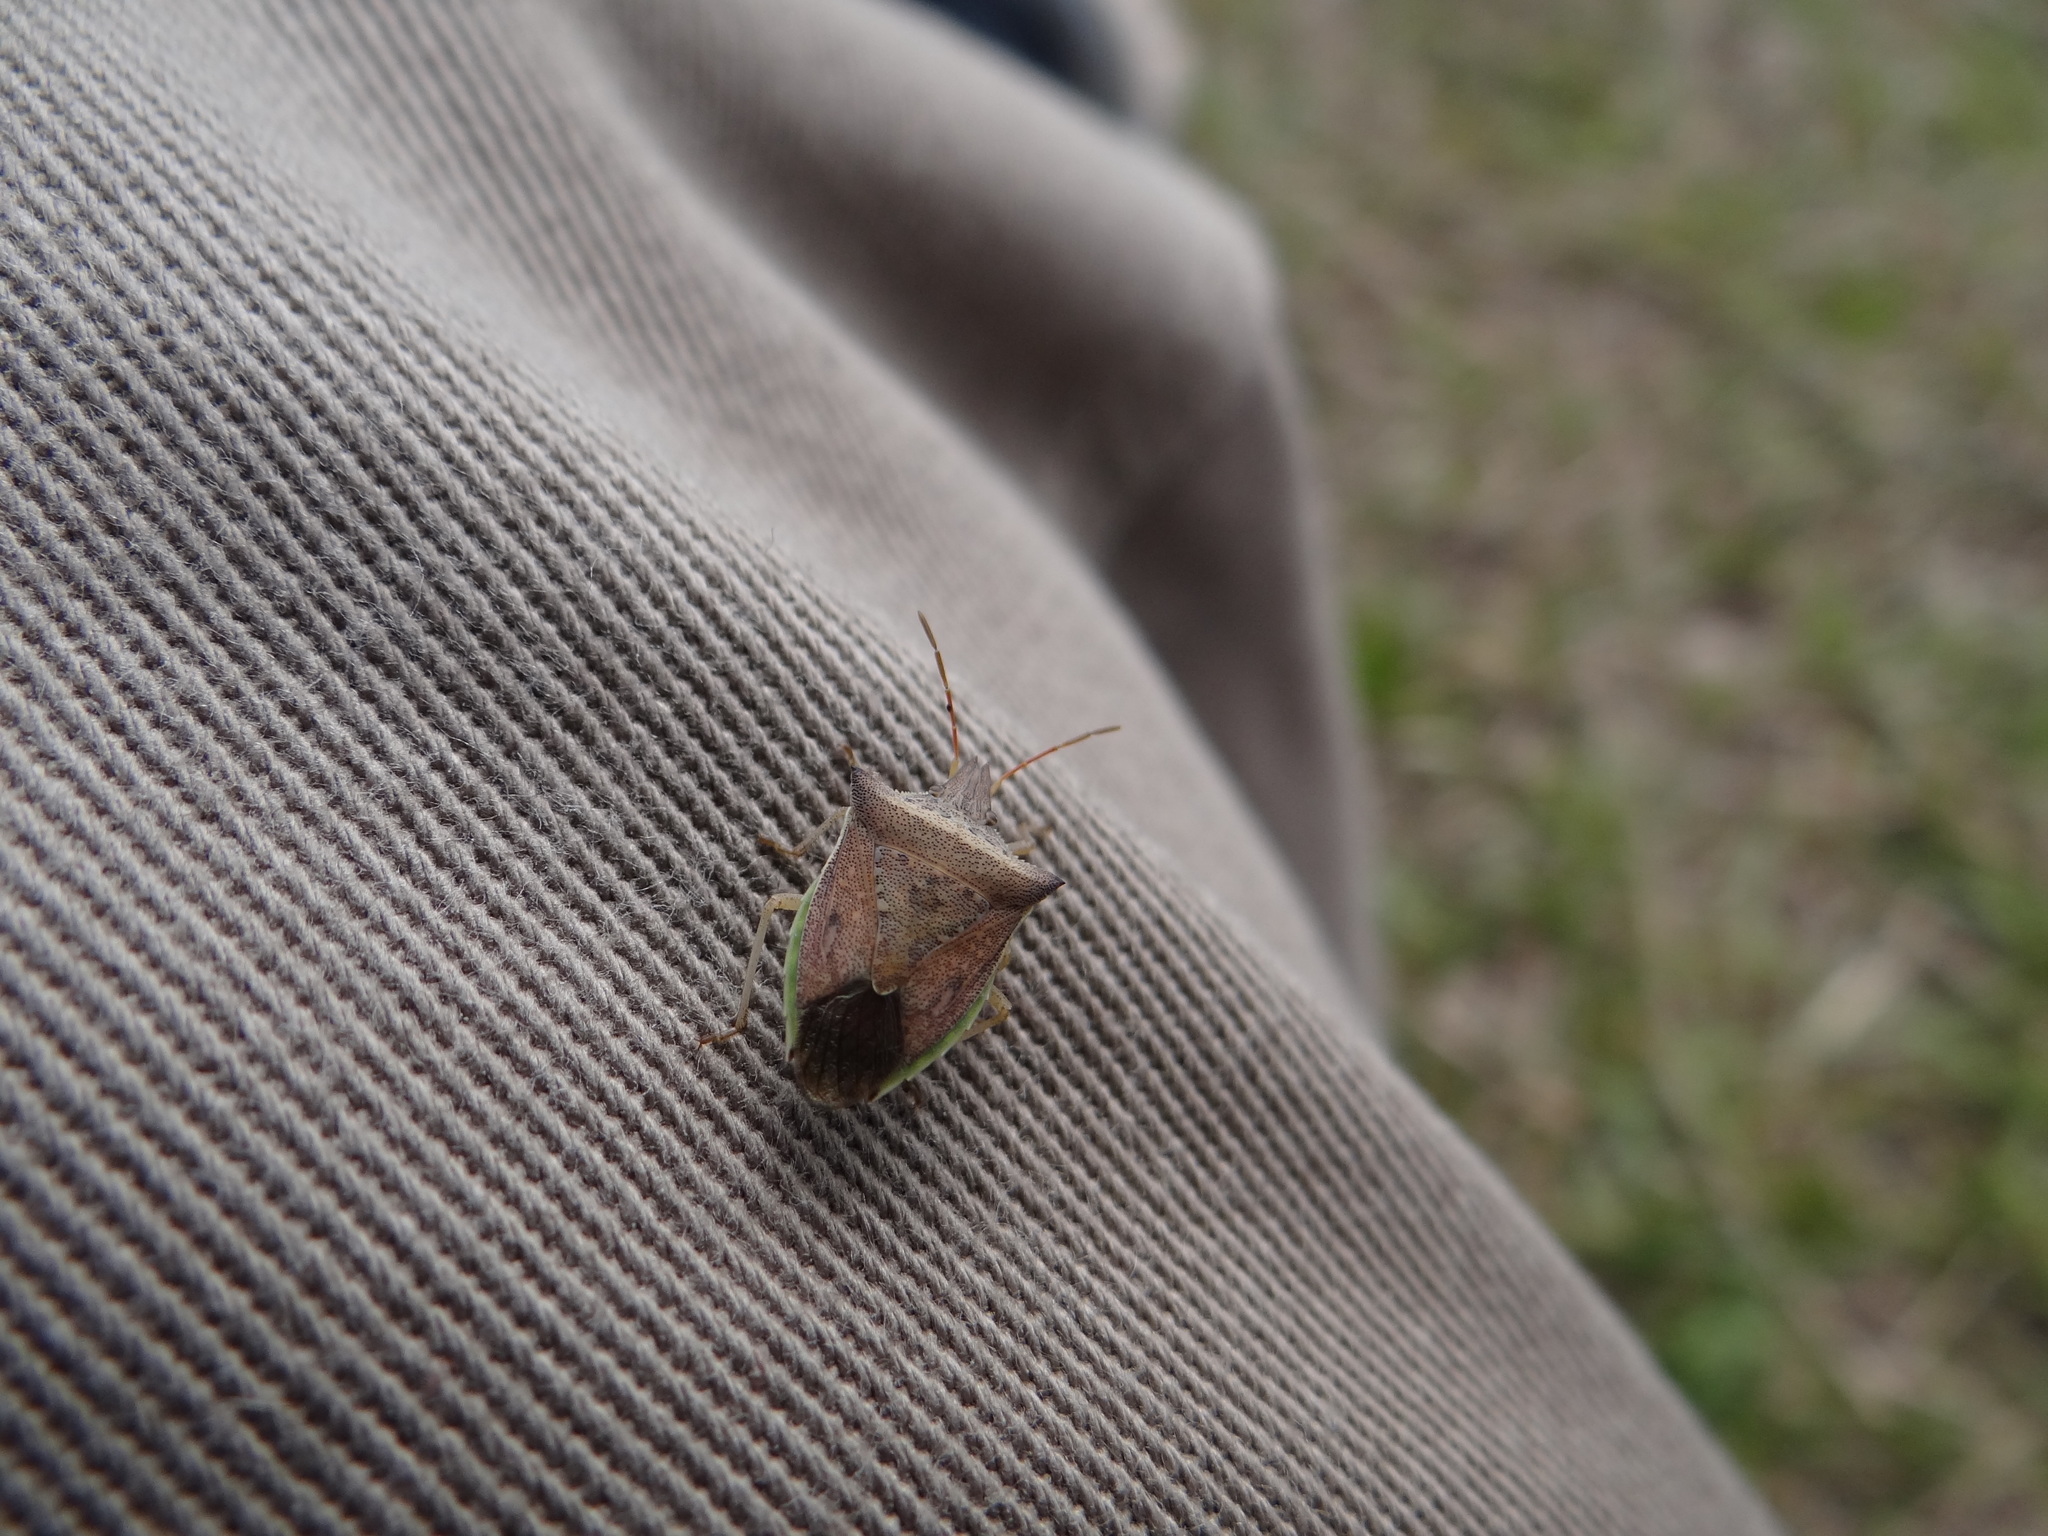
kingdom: Animalia
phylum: Arthropoda
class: Insecta
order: Hemiptera
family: Pentatomidae
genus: Diceraeus
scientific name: Diceraeus furcatus
